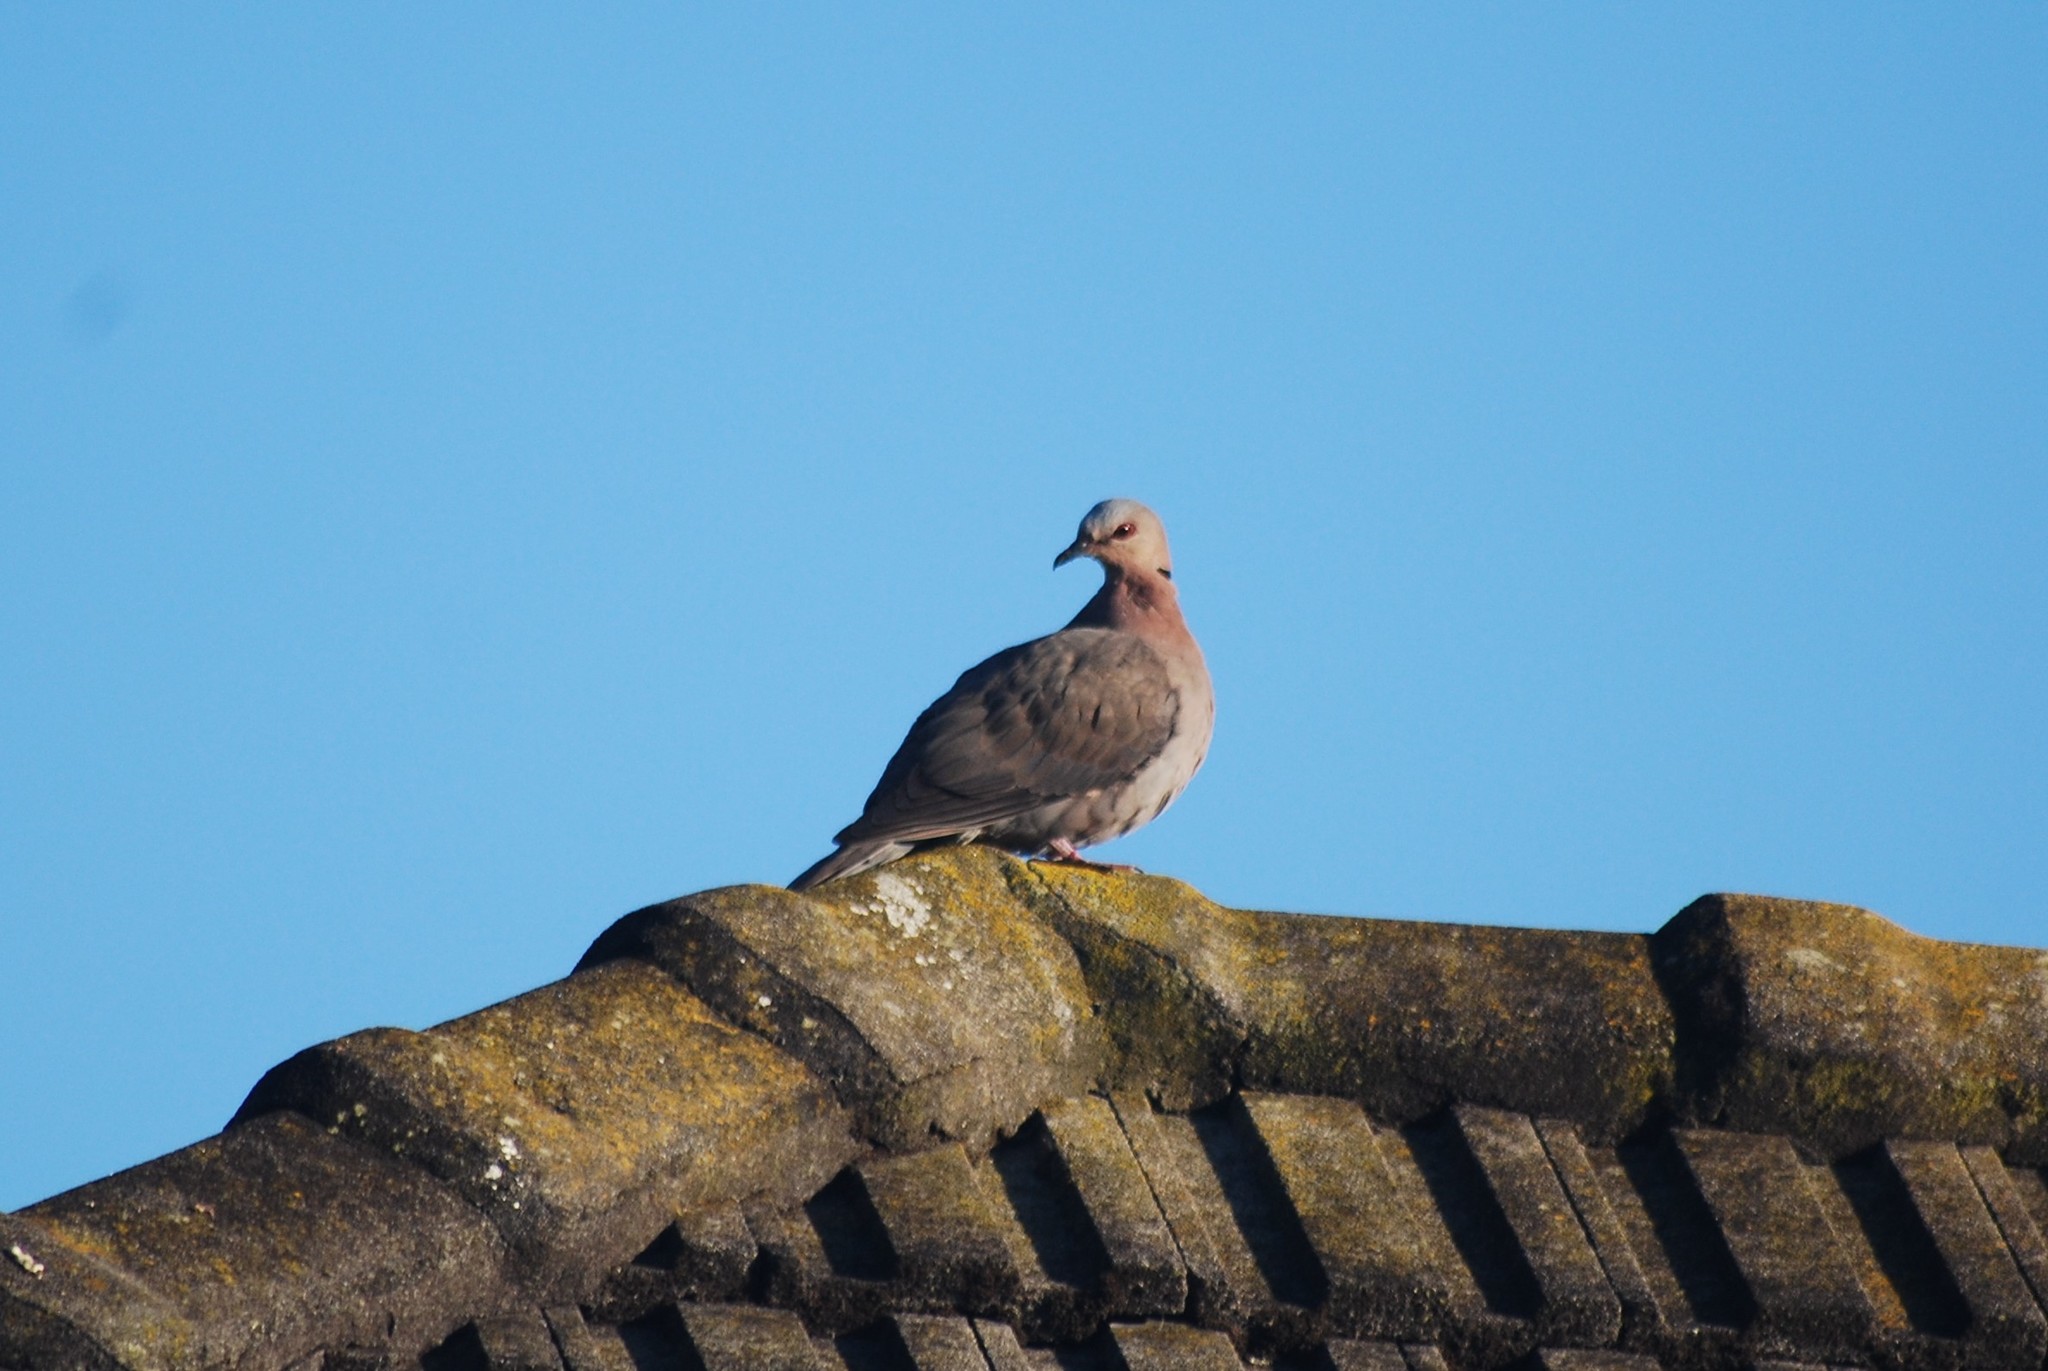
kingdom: Animalia
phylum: Chordata
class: Aves
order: Columbiformes
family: Columbidae
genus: Streptopelia
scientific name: Streptopelia semitorquata
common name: Red-eyed dove
